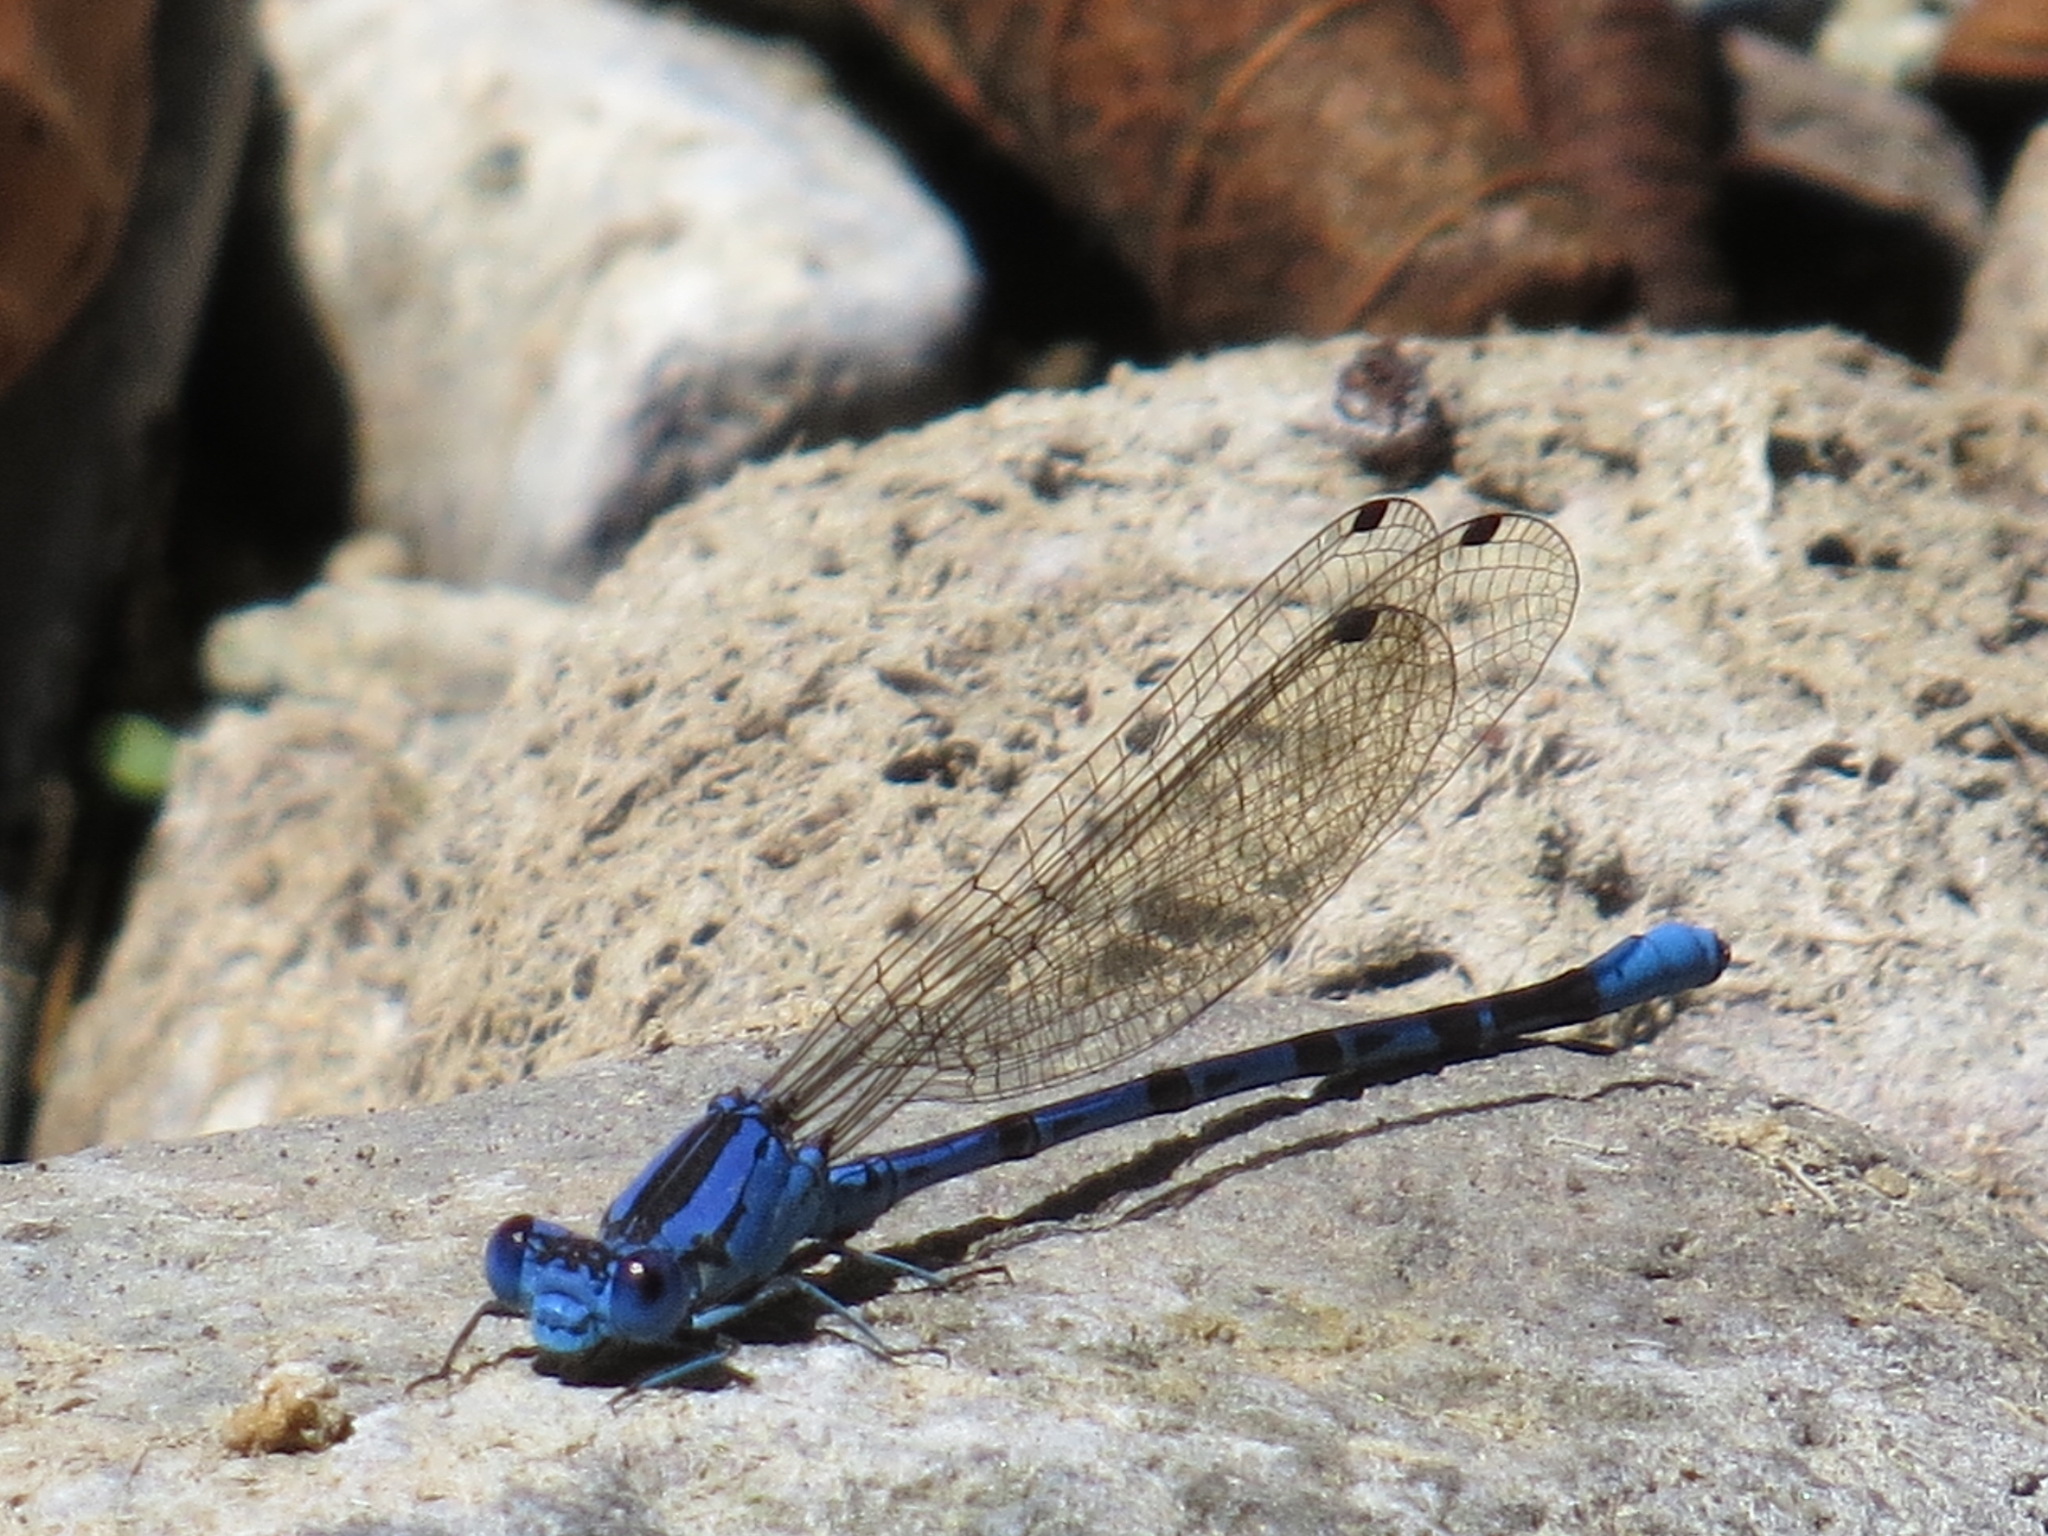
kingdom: Animalia
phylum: Arthropoda
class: Insecta
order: Odonata
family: Coenagrionidae
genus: Argia
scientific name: Argia vivida
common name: Vivid dancer
